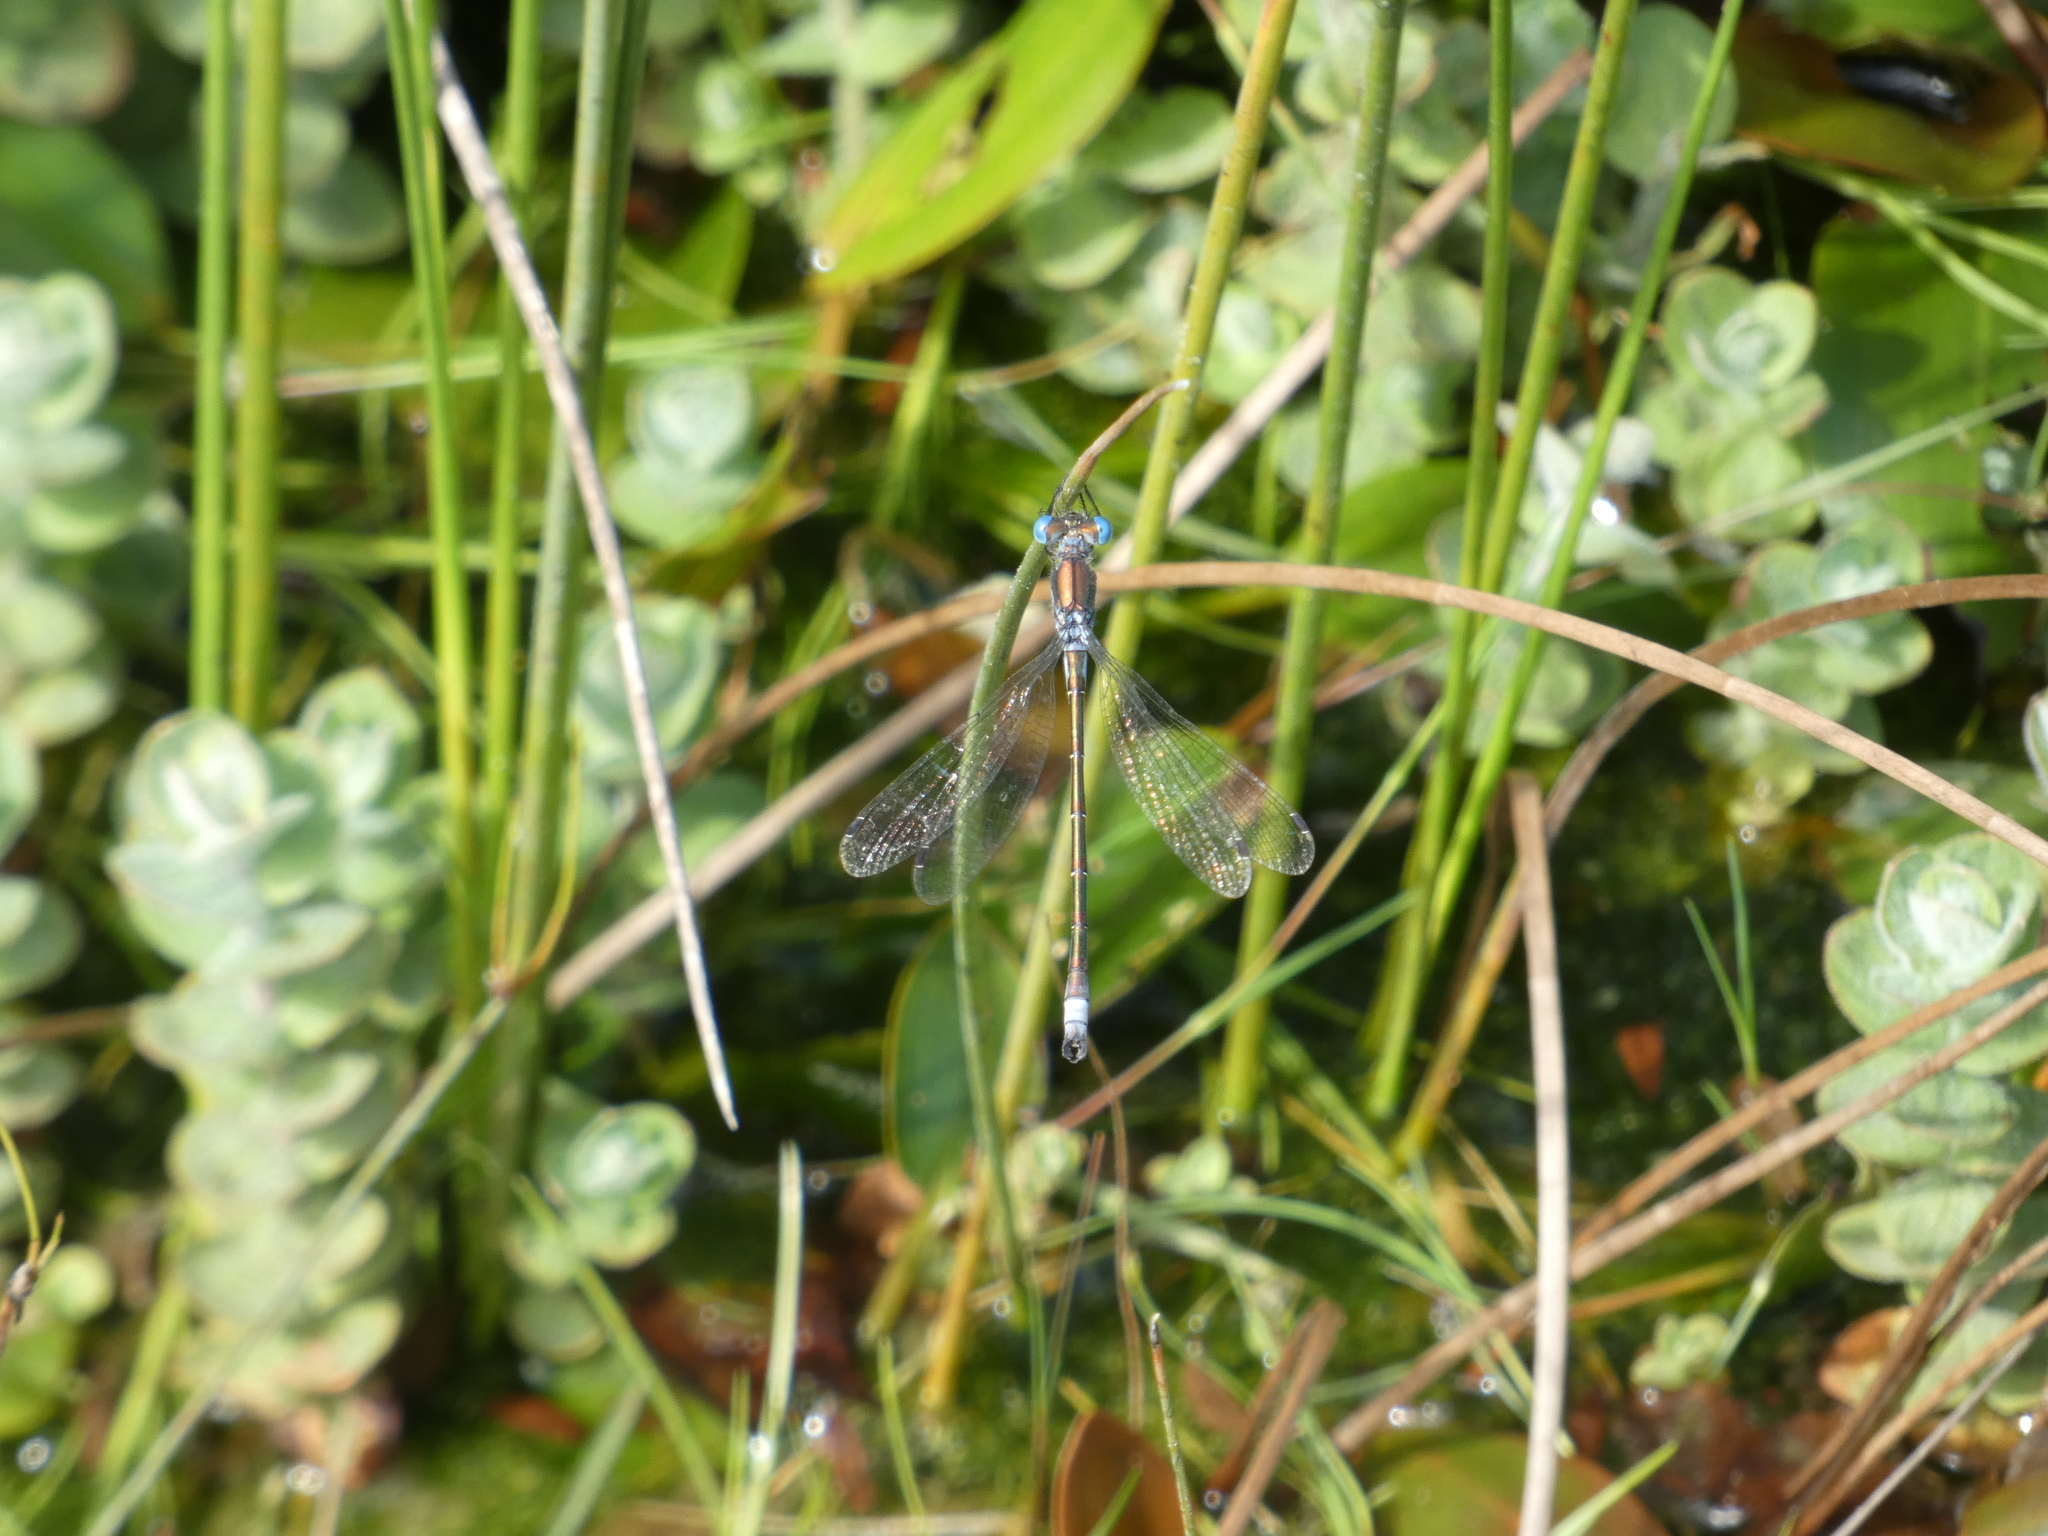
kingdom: Animalia
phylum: Arthropoda
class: Insecta
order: Odonata
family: Lestidae
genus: Lestes
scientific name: Lestes dryas
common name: Scarce emerald damselfly
